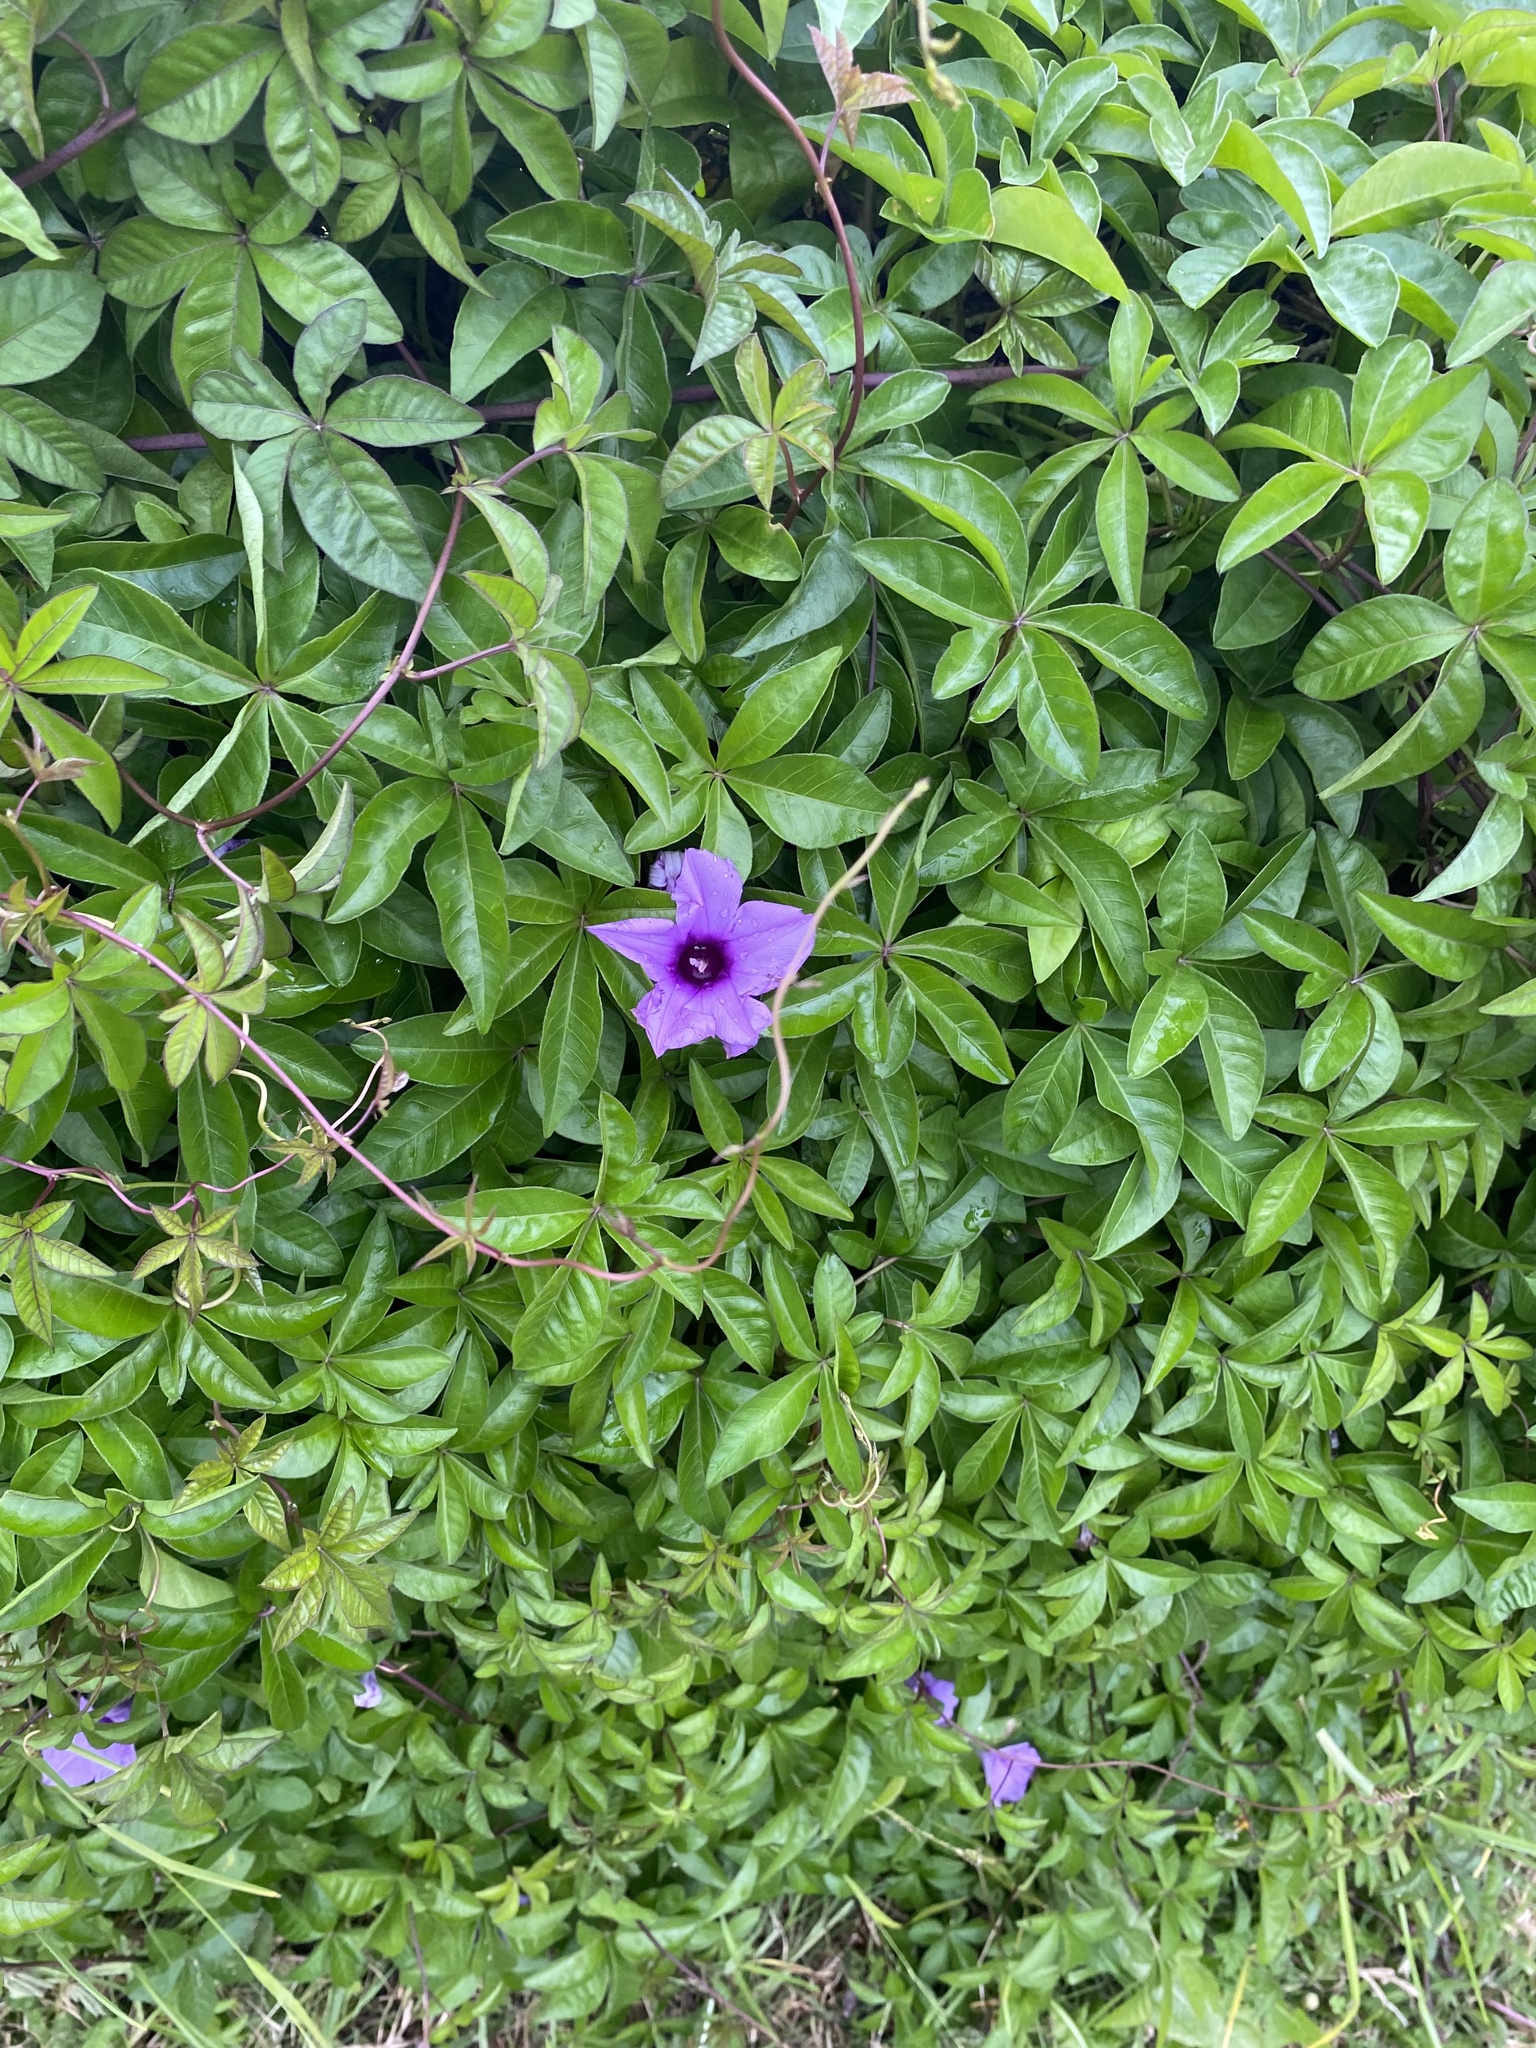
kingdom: Plantae
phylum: Tracheophyta
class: Magnoliopsida
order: Solanales
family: Convolvulaceae
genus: Ipomoea
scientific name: Ipomoea cairica
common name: Mile a minute vine
